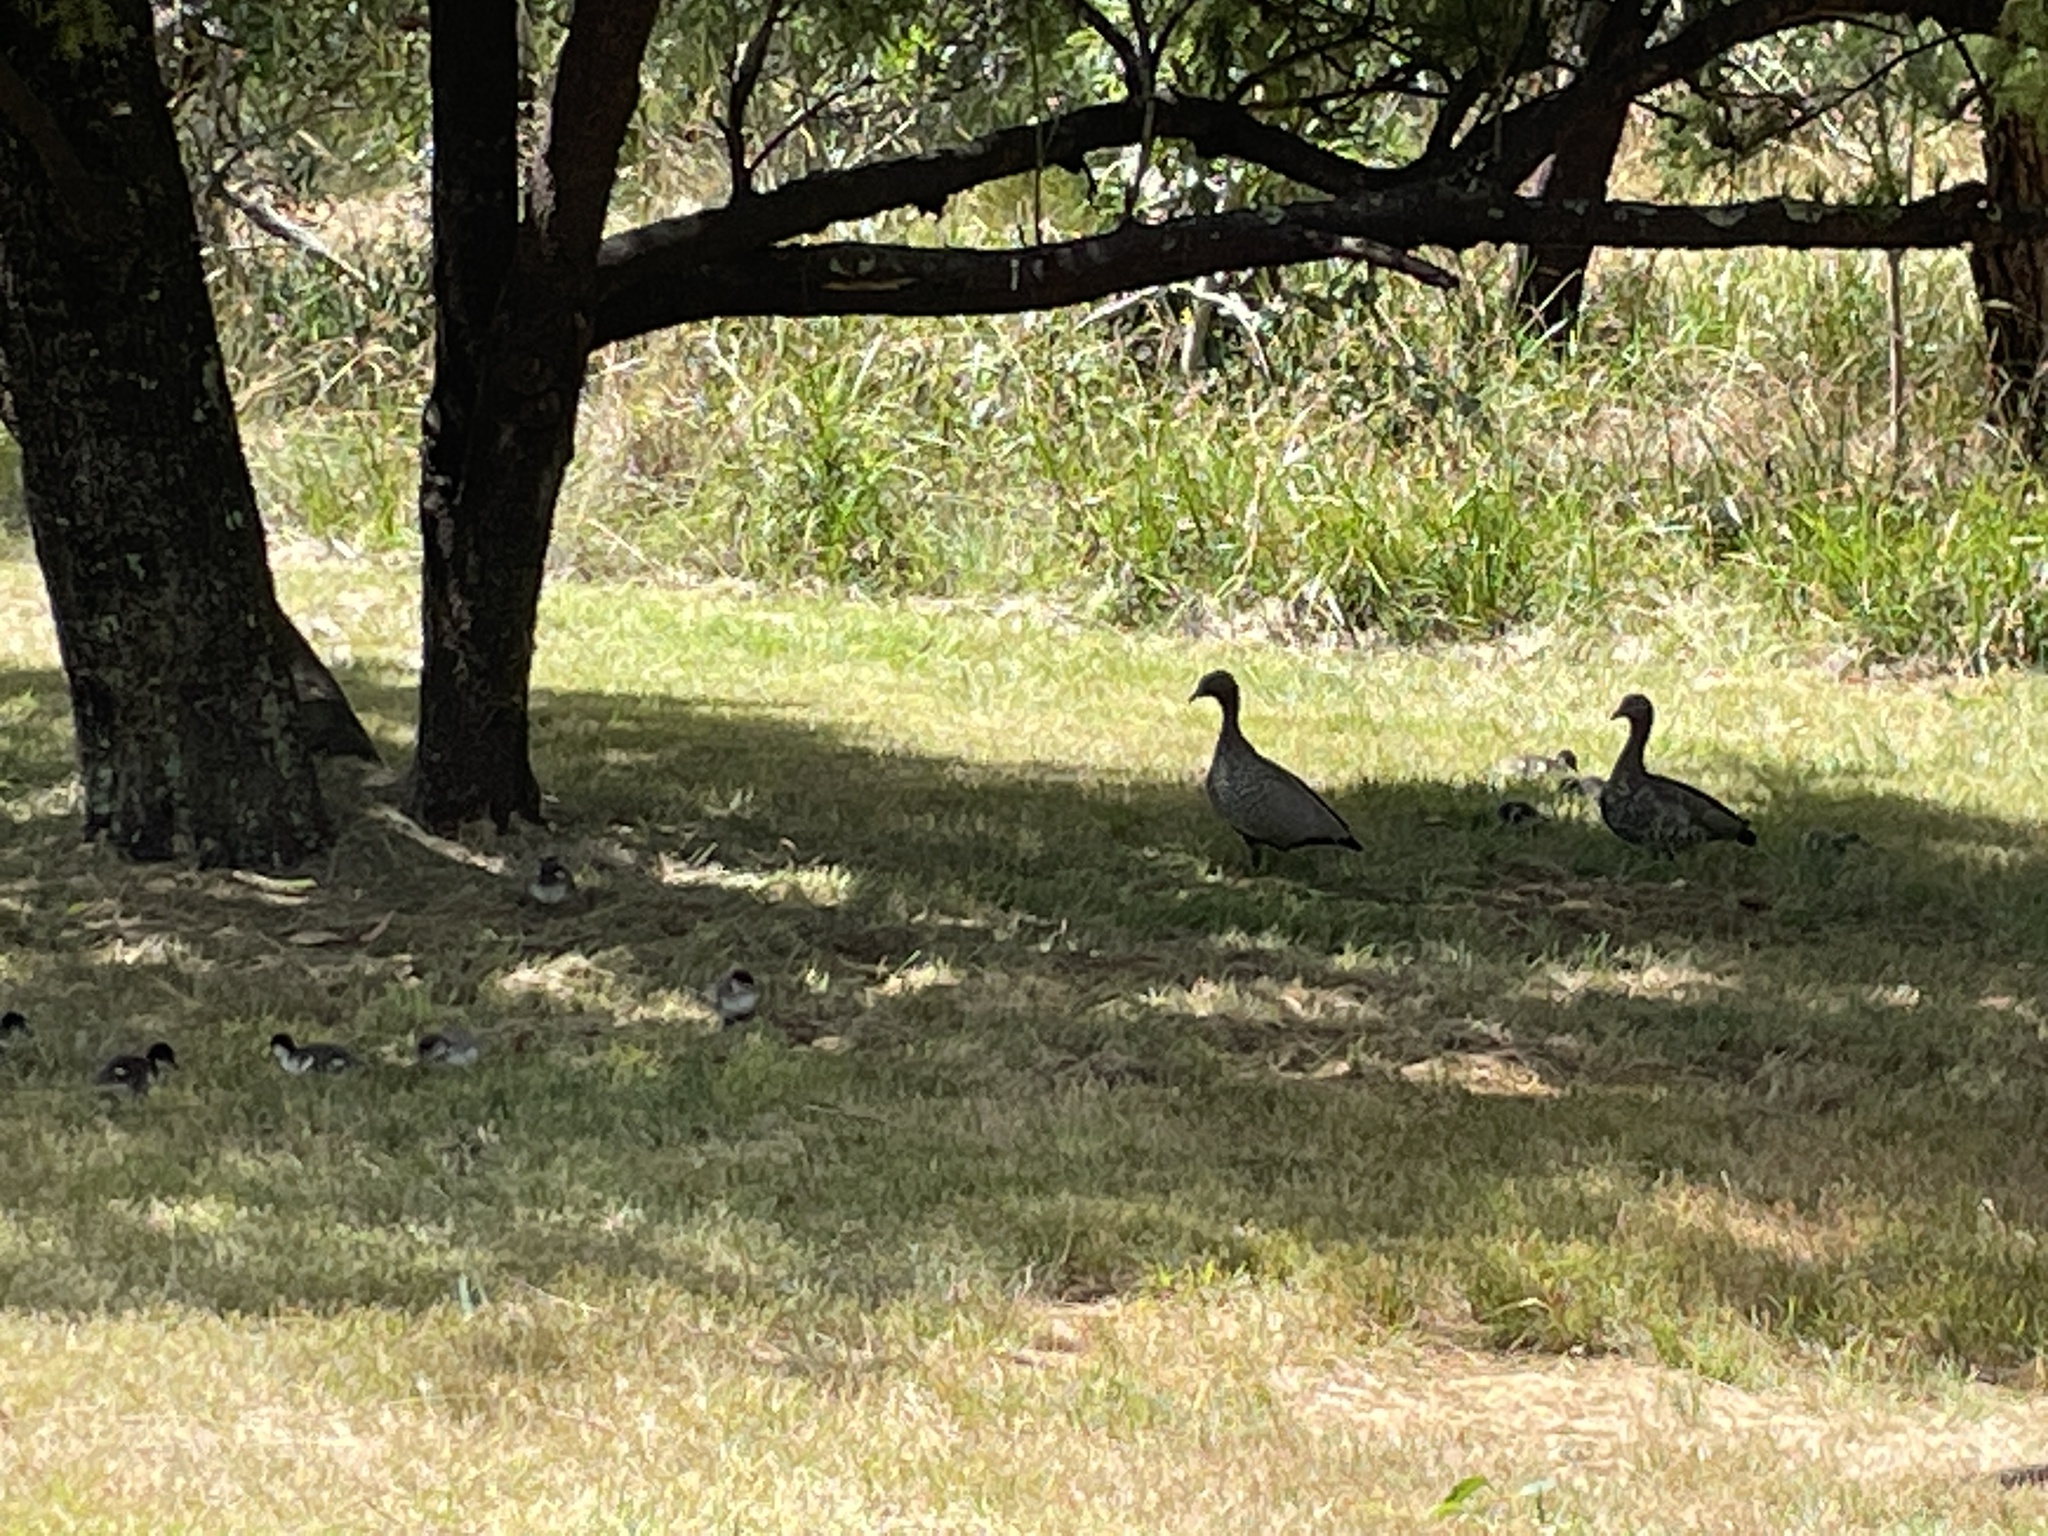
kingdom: Animalia
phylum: Chordata
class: Aves
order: Anseriformes
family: Anatidae
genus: Chenonetta
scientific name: Chenonetta jubata
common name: Maned duck
